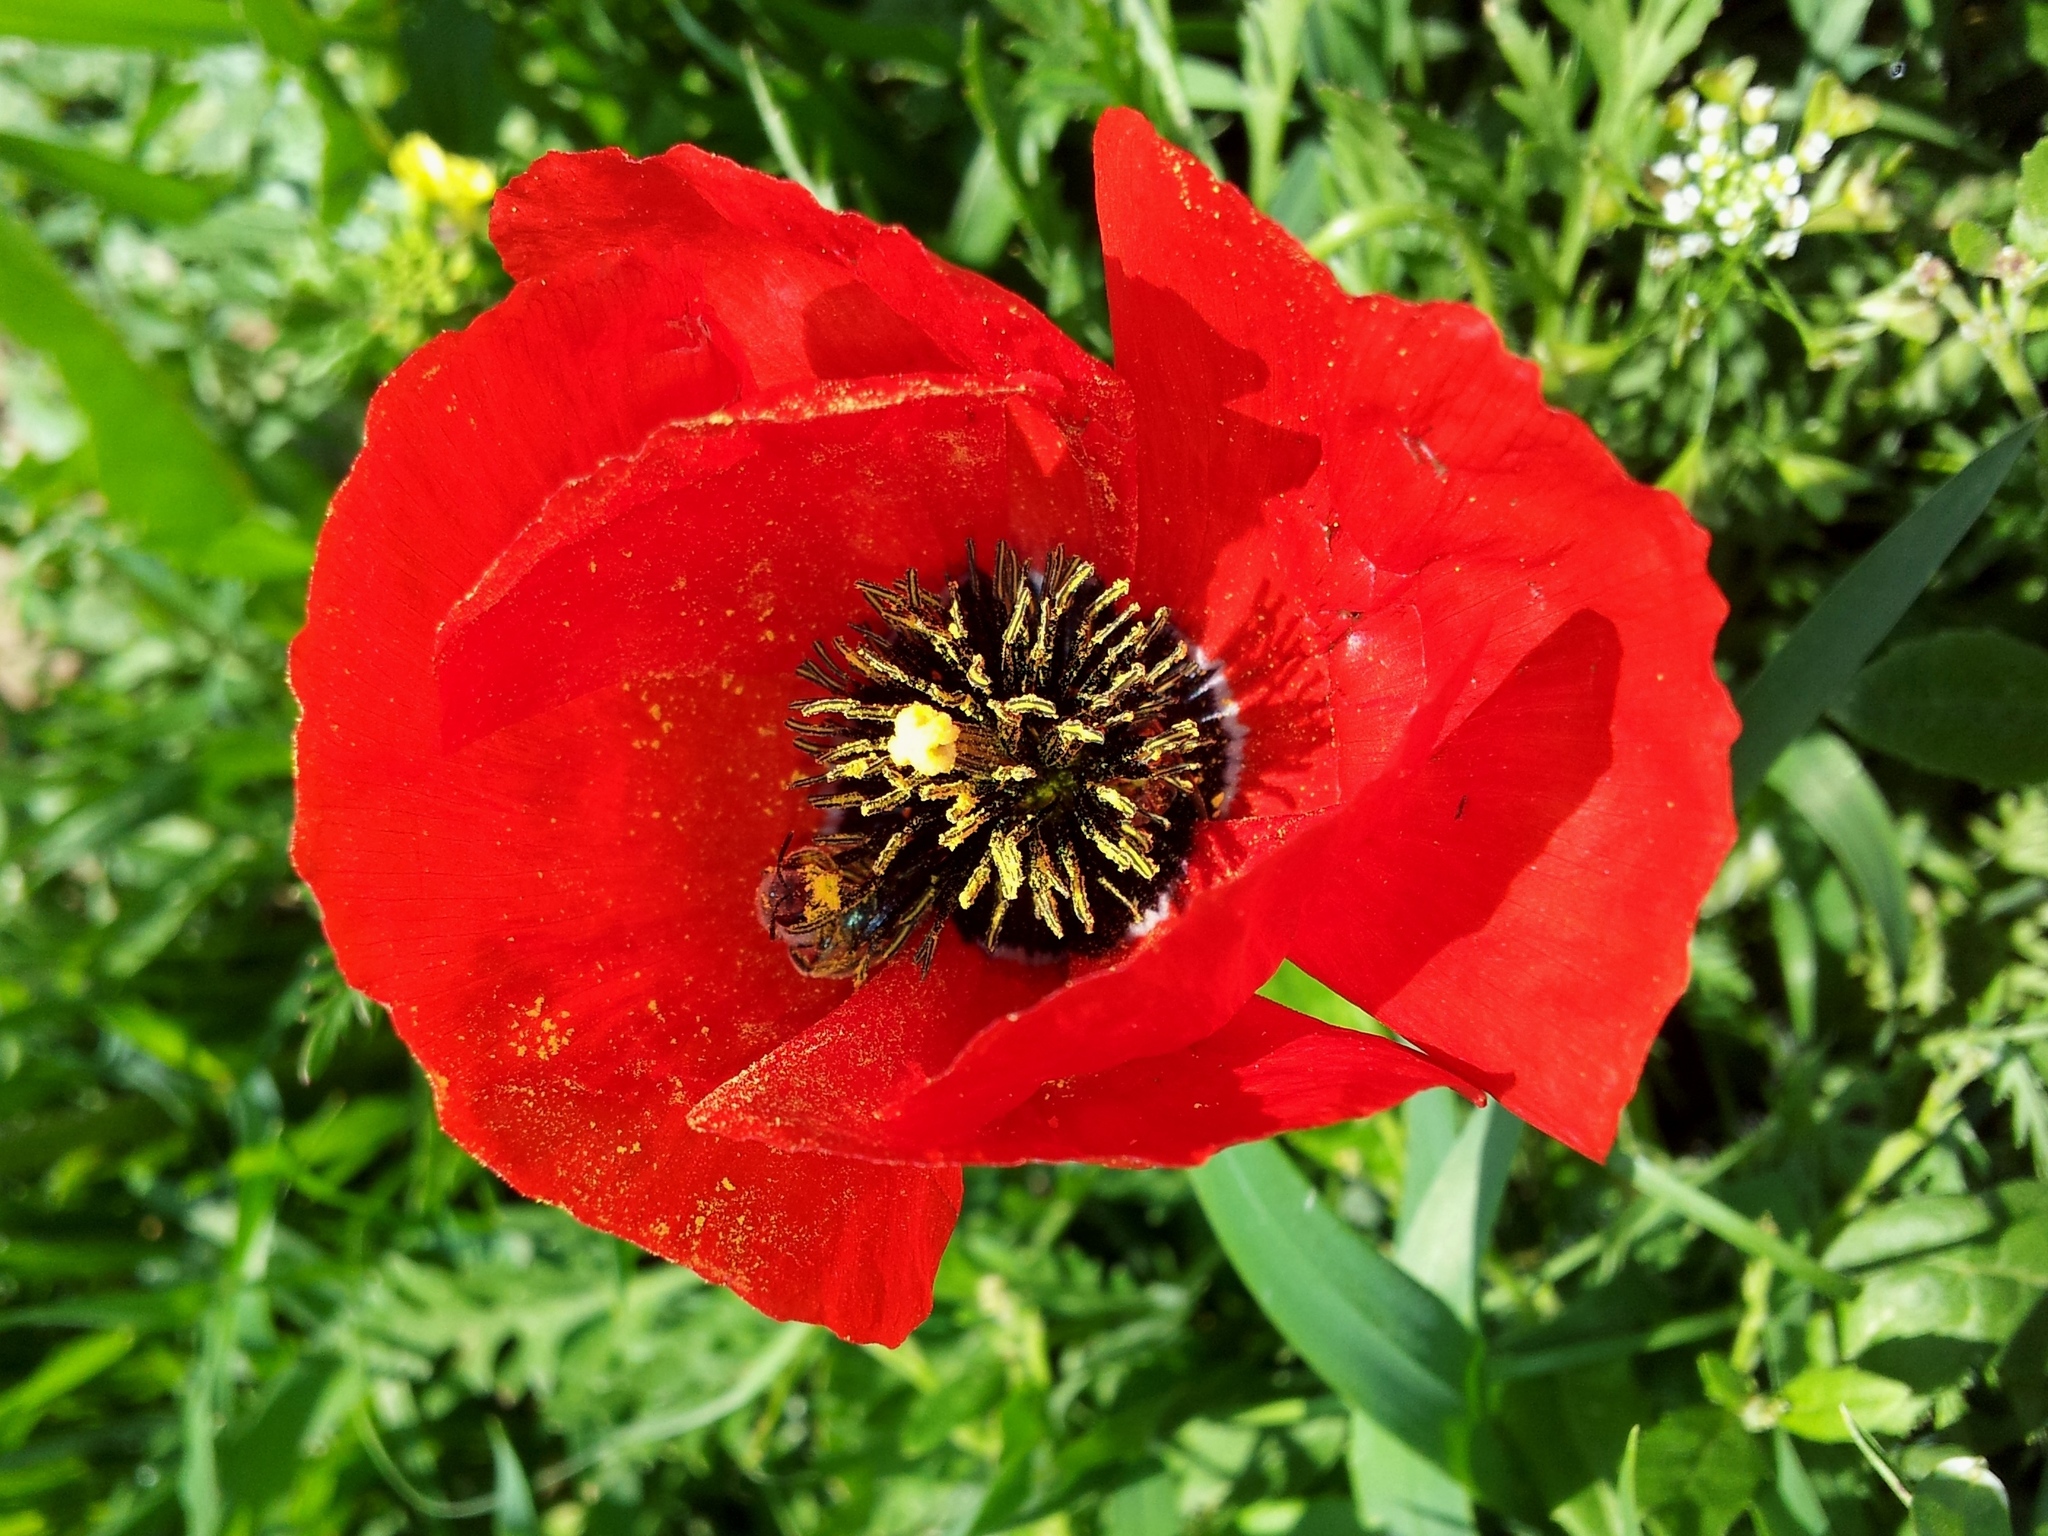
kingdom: Plantae
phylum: Tracheophyta
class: Magnoliopsida
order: Ranunculales
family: Papaveraceae
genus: Roemeria
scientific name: Roemeria refracta
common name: Spotted asian poppy
